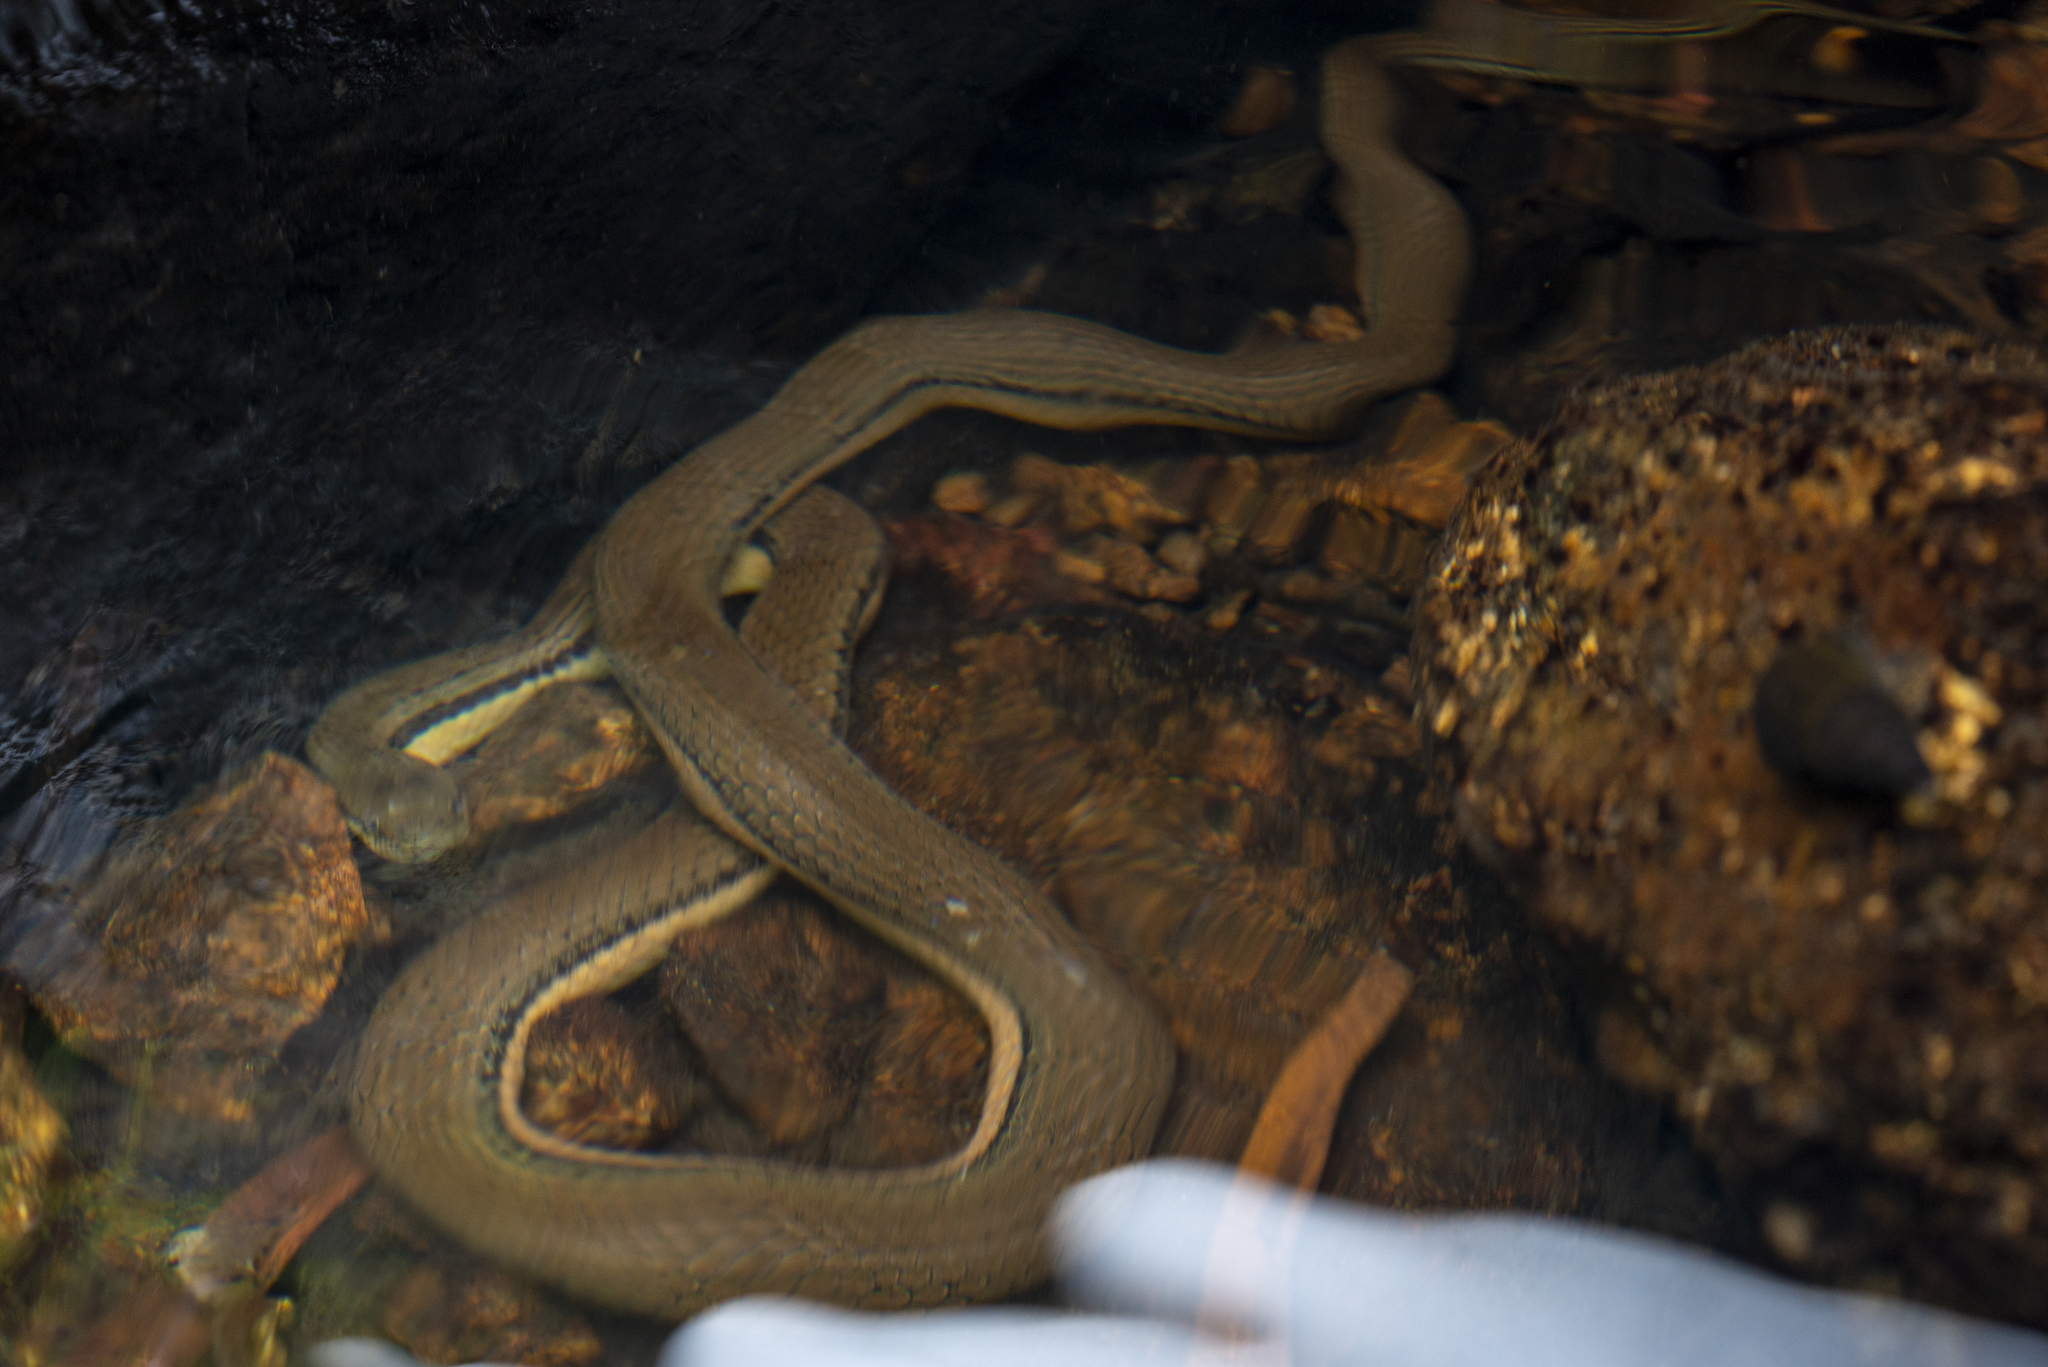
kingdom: Animalia
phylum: Chordata
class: Squamata
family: Colubridae
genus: Opisthotropis
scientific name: Opisthotropis lateralis
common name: Tonkin mountain keelback
